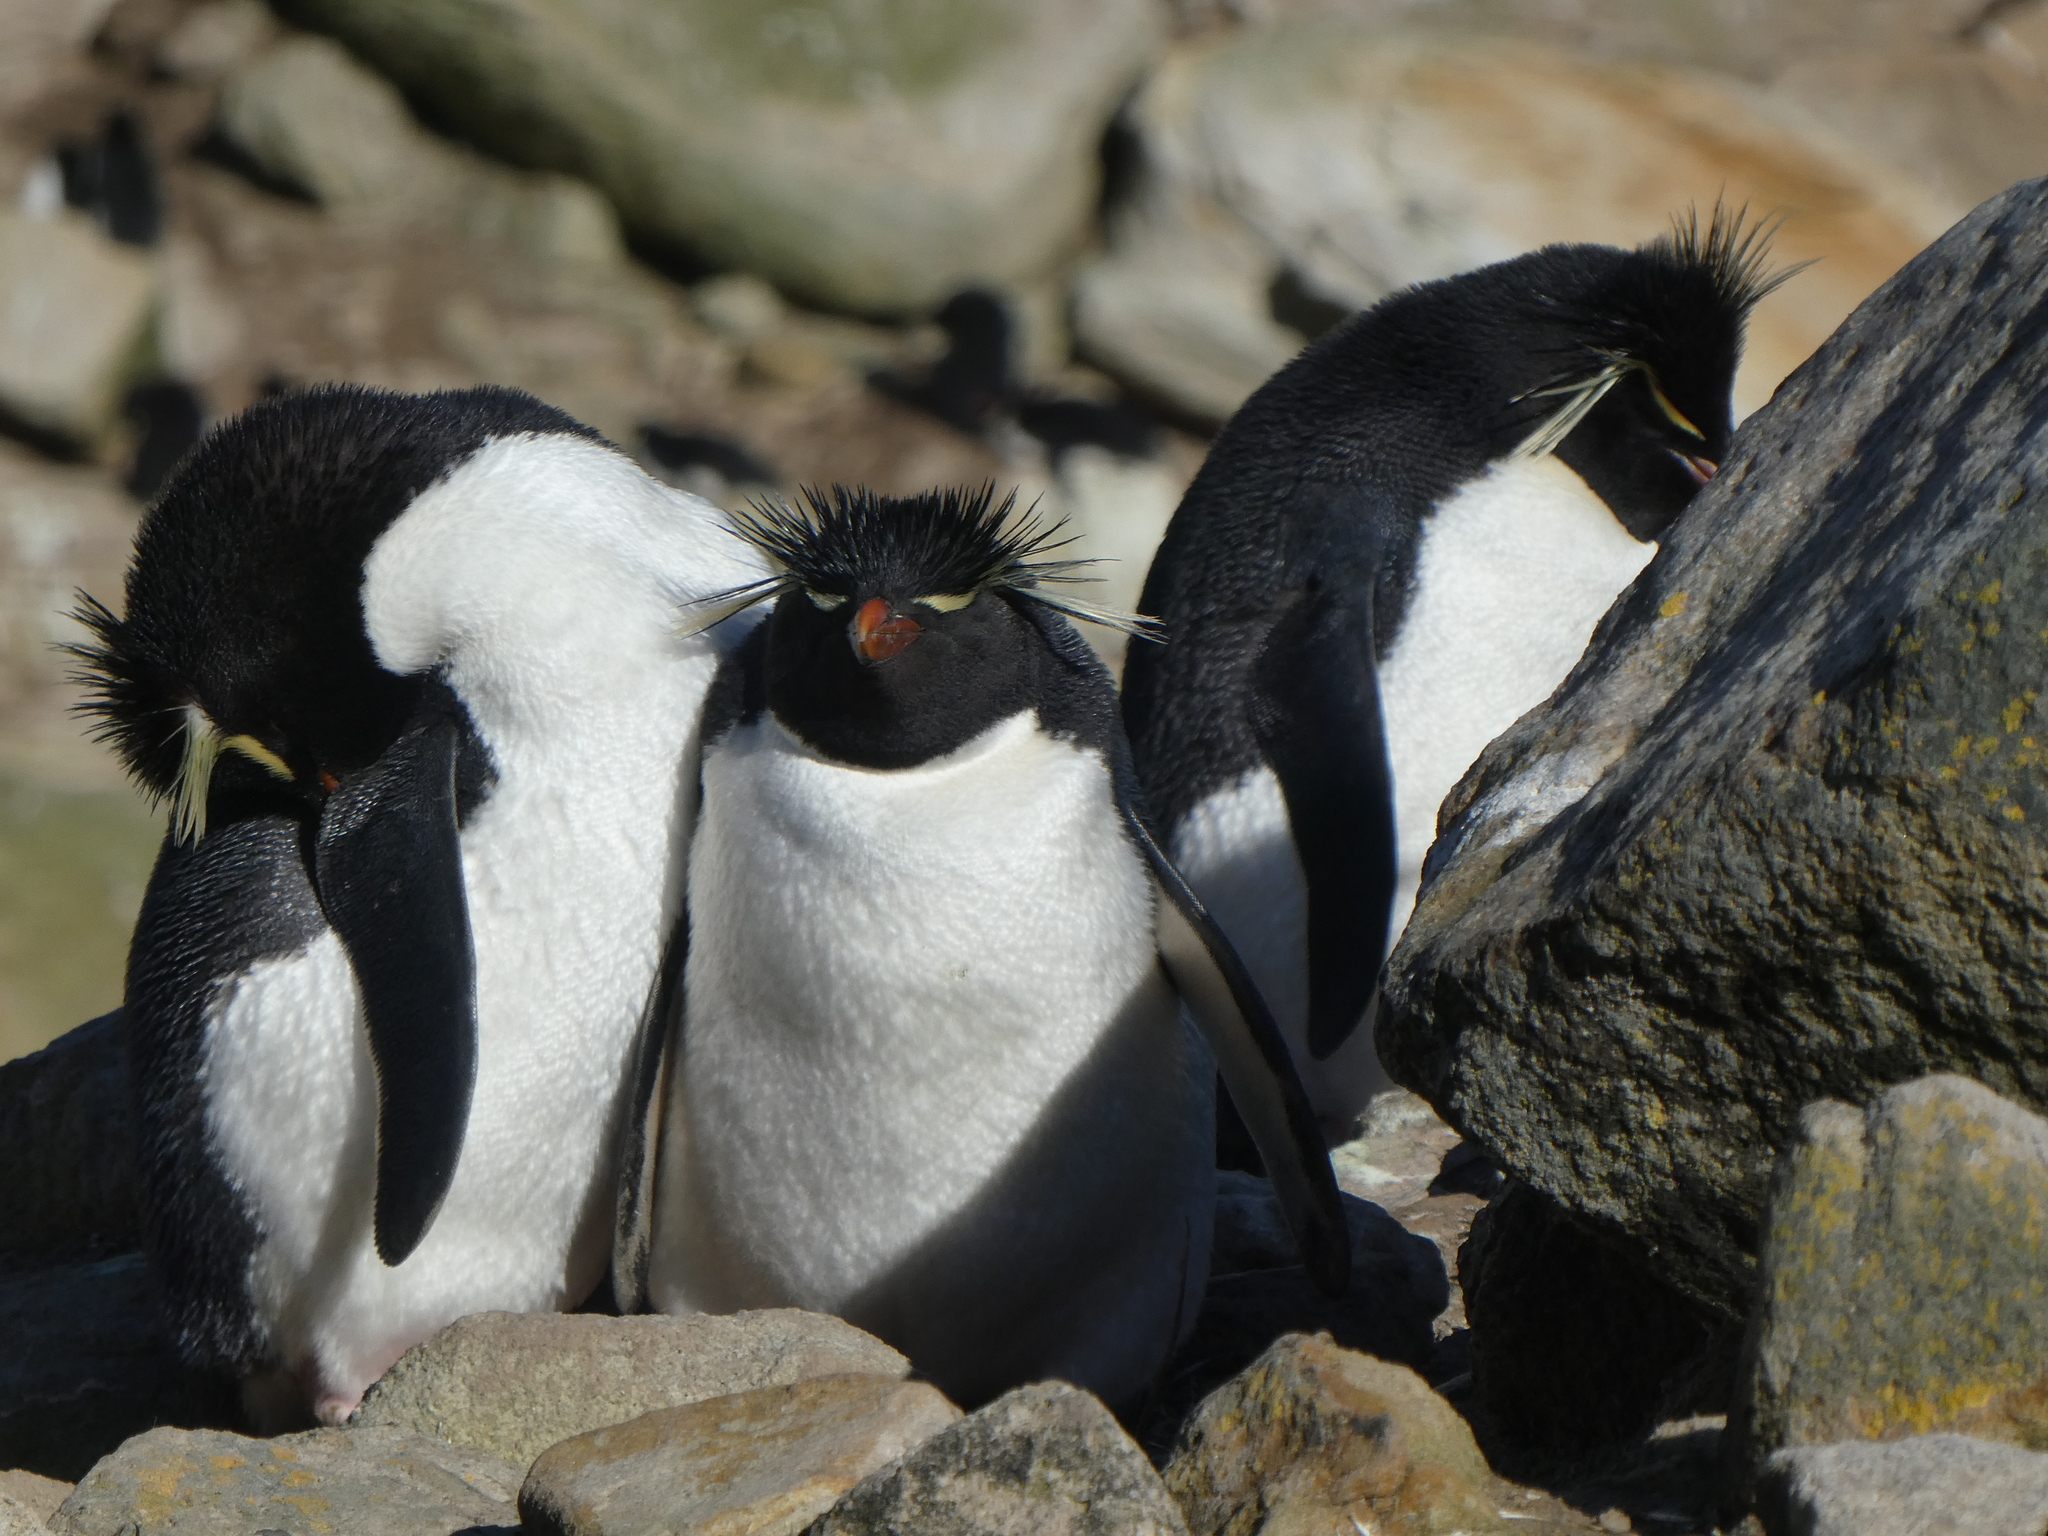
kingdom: Animalia
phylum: Chordata
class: Aves
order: Sphenisciformes
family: Spheniscidae
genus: Eudyptes
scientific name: Eudyptes chrysocome
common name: Southern rockhopper penguin
